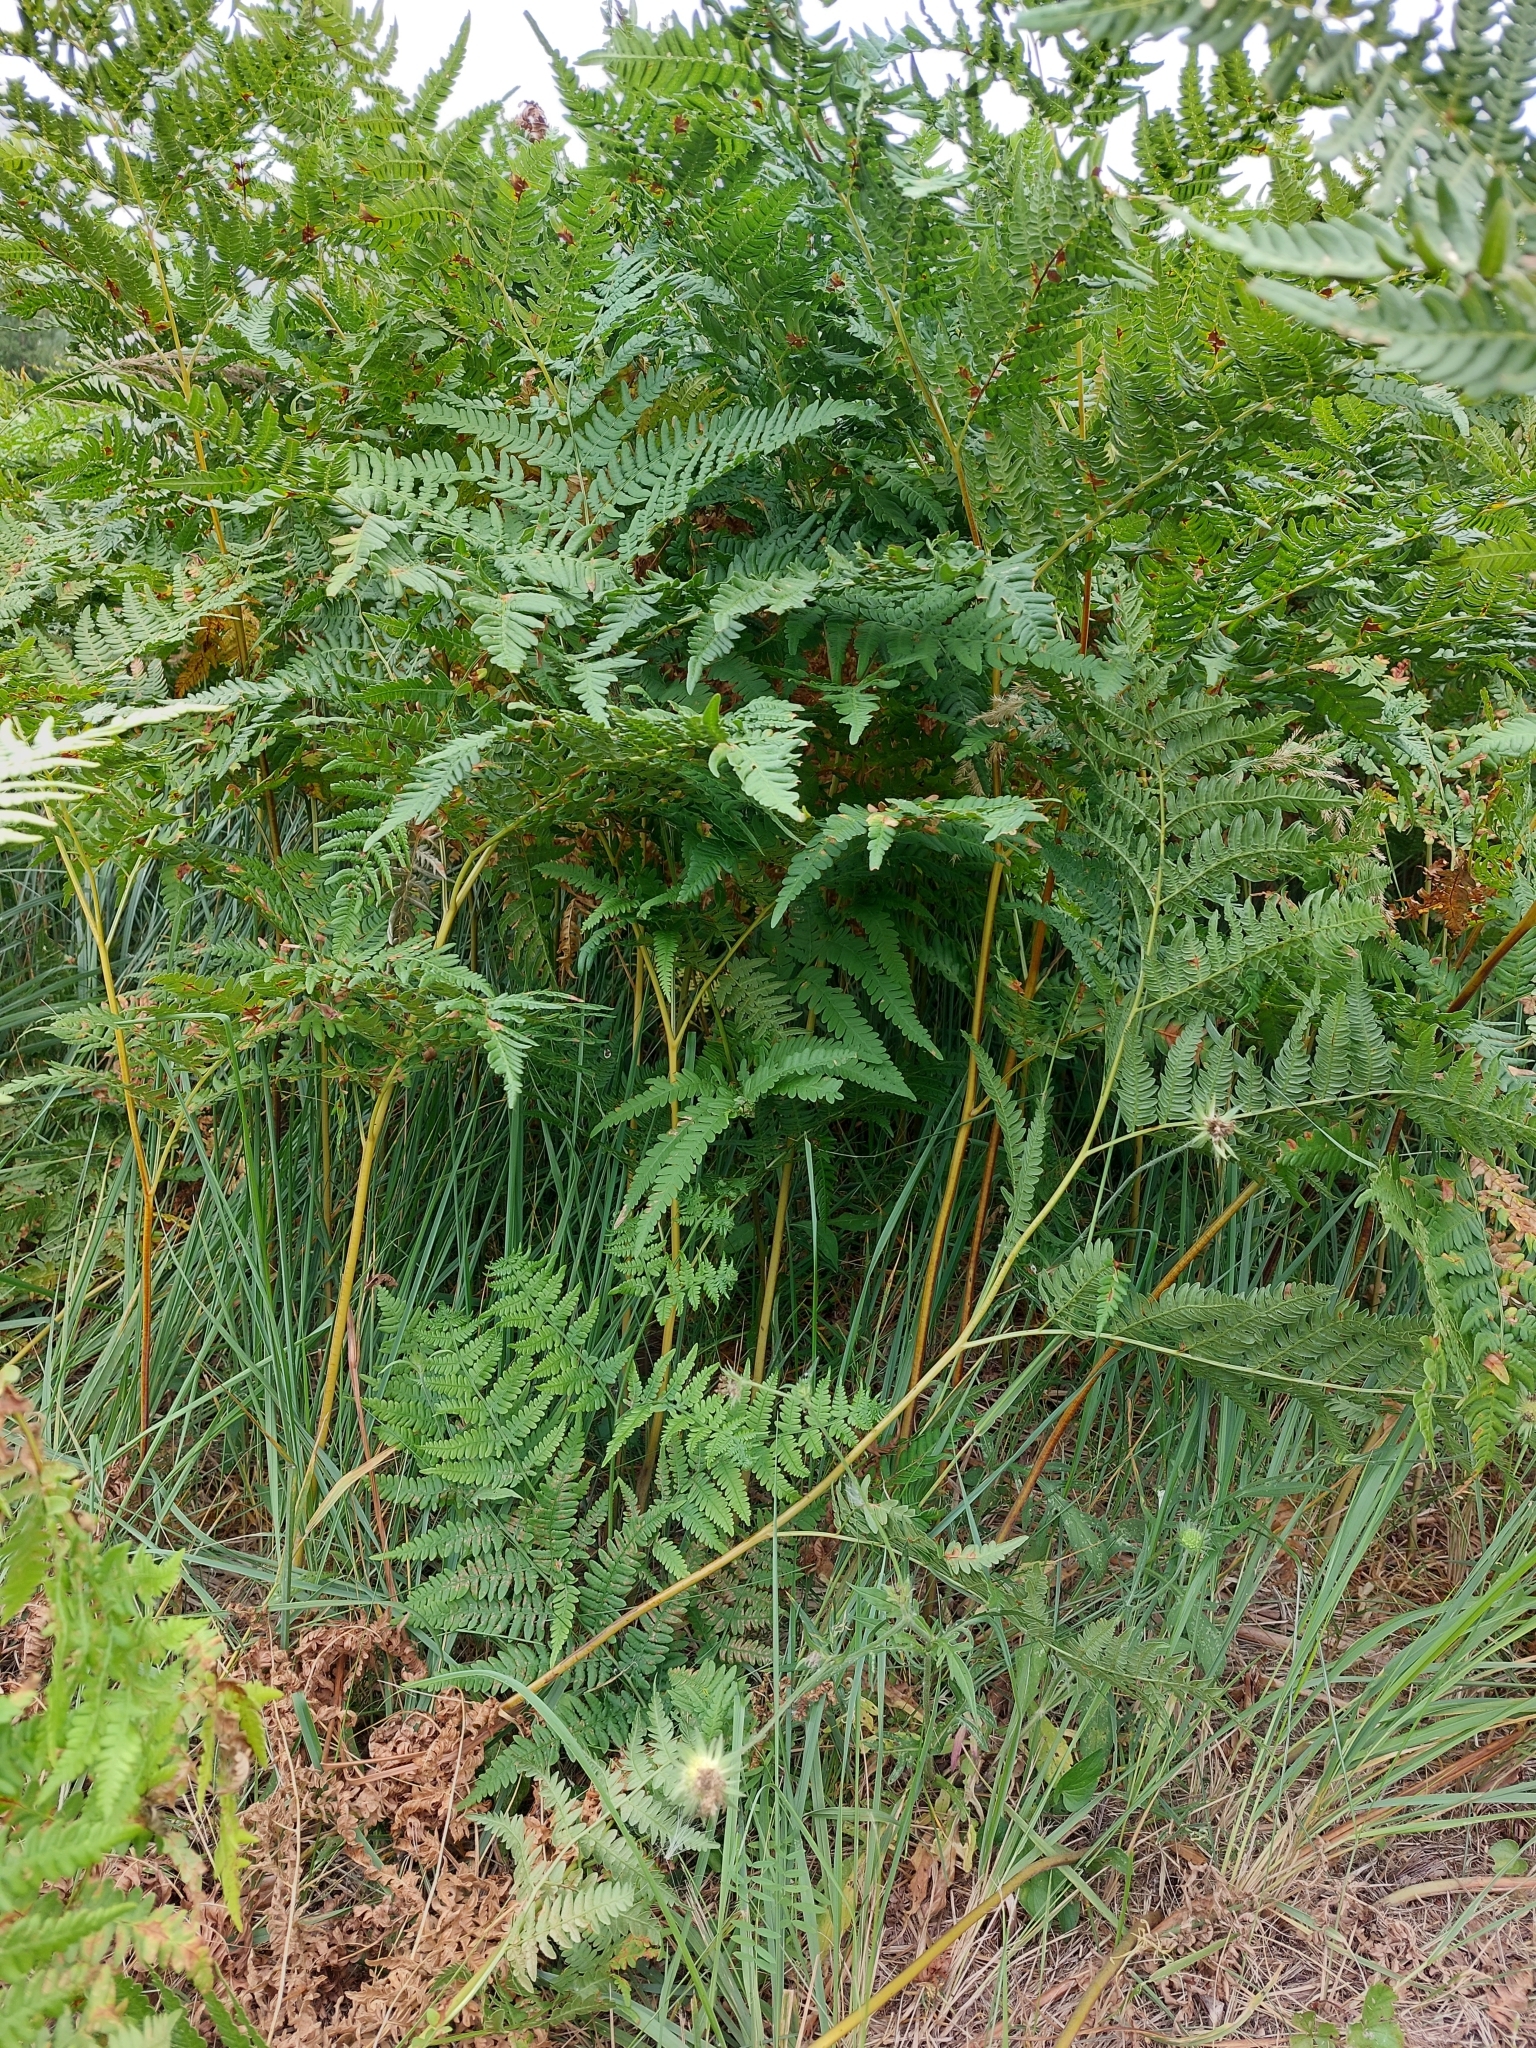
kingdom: Plantae
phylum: Tracheophyta
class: Polypodiopsida
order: Polypodiales
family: Dennstaedtiaceae
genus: Pteridium
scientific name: Pteridium aquilinum
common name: Bracken
